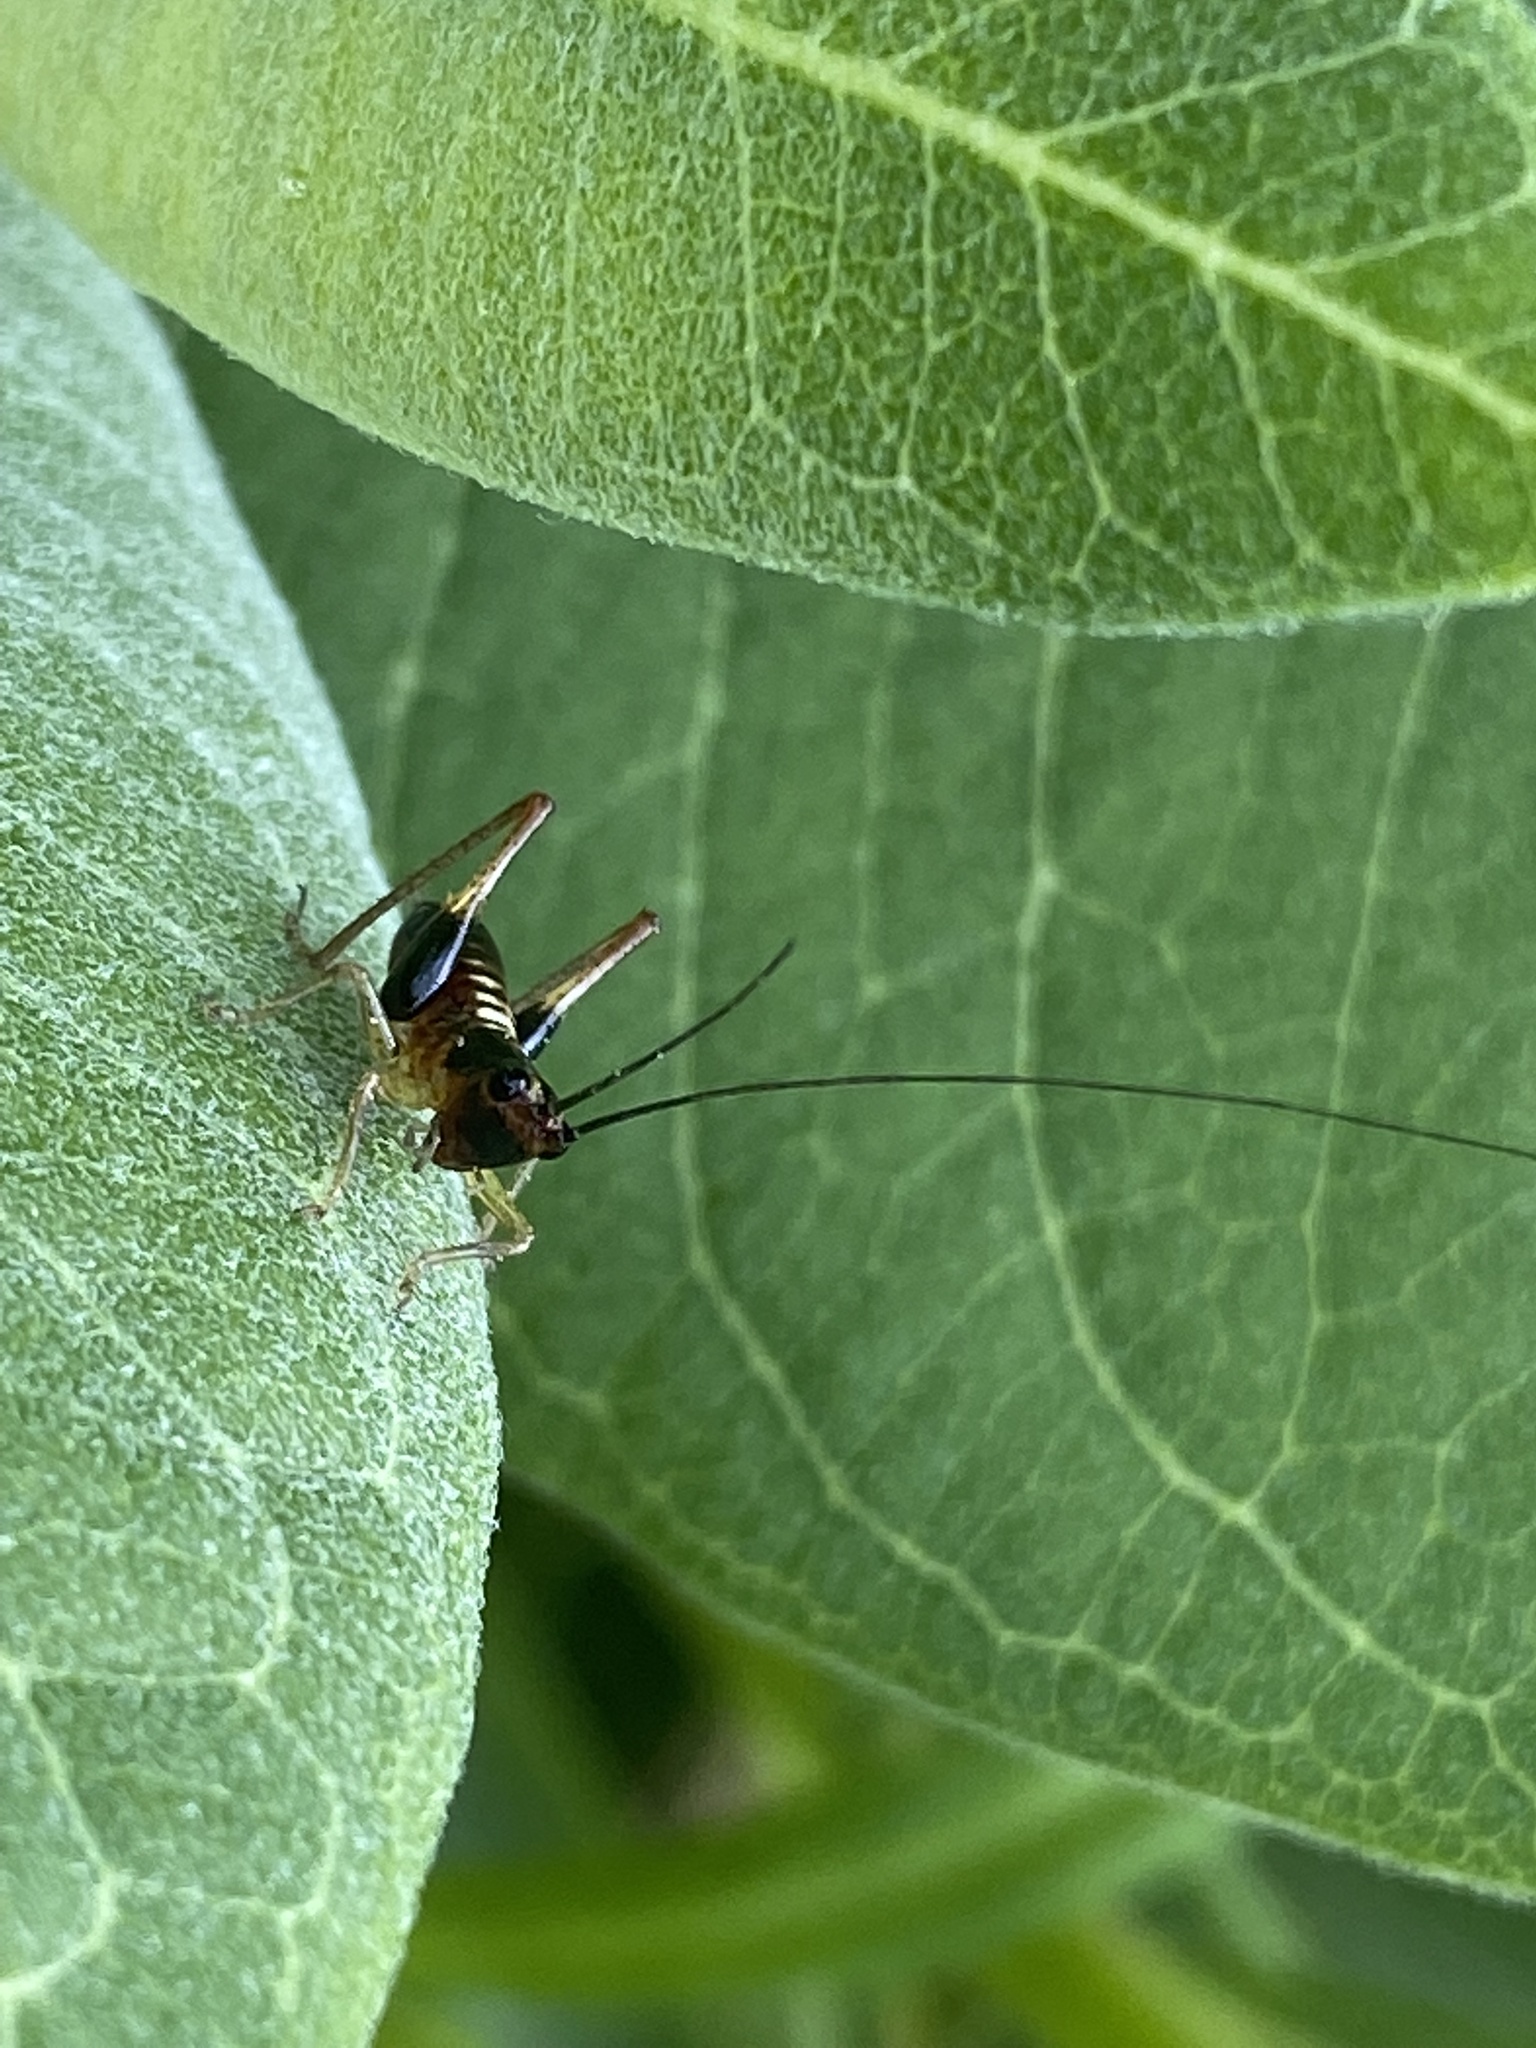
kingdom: Animalia
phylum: Arthropoda
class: Insecta
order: Orthoptera
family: Tettigoniidae
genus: Conocephalus
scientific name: Conocephalus nigropleurum
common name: Black-sided meadow katydid
